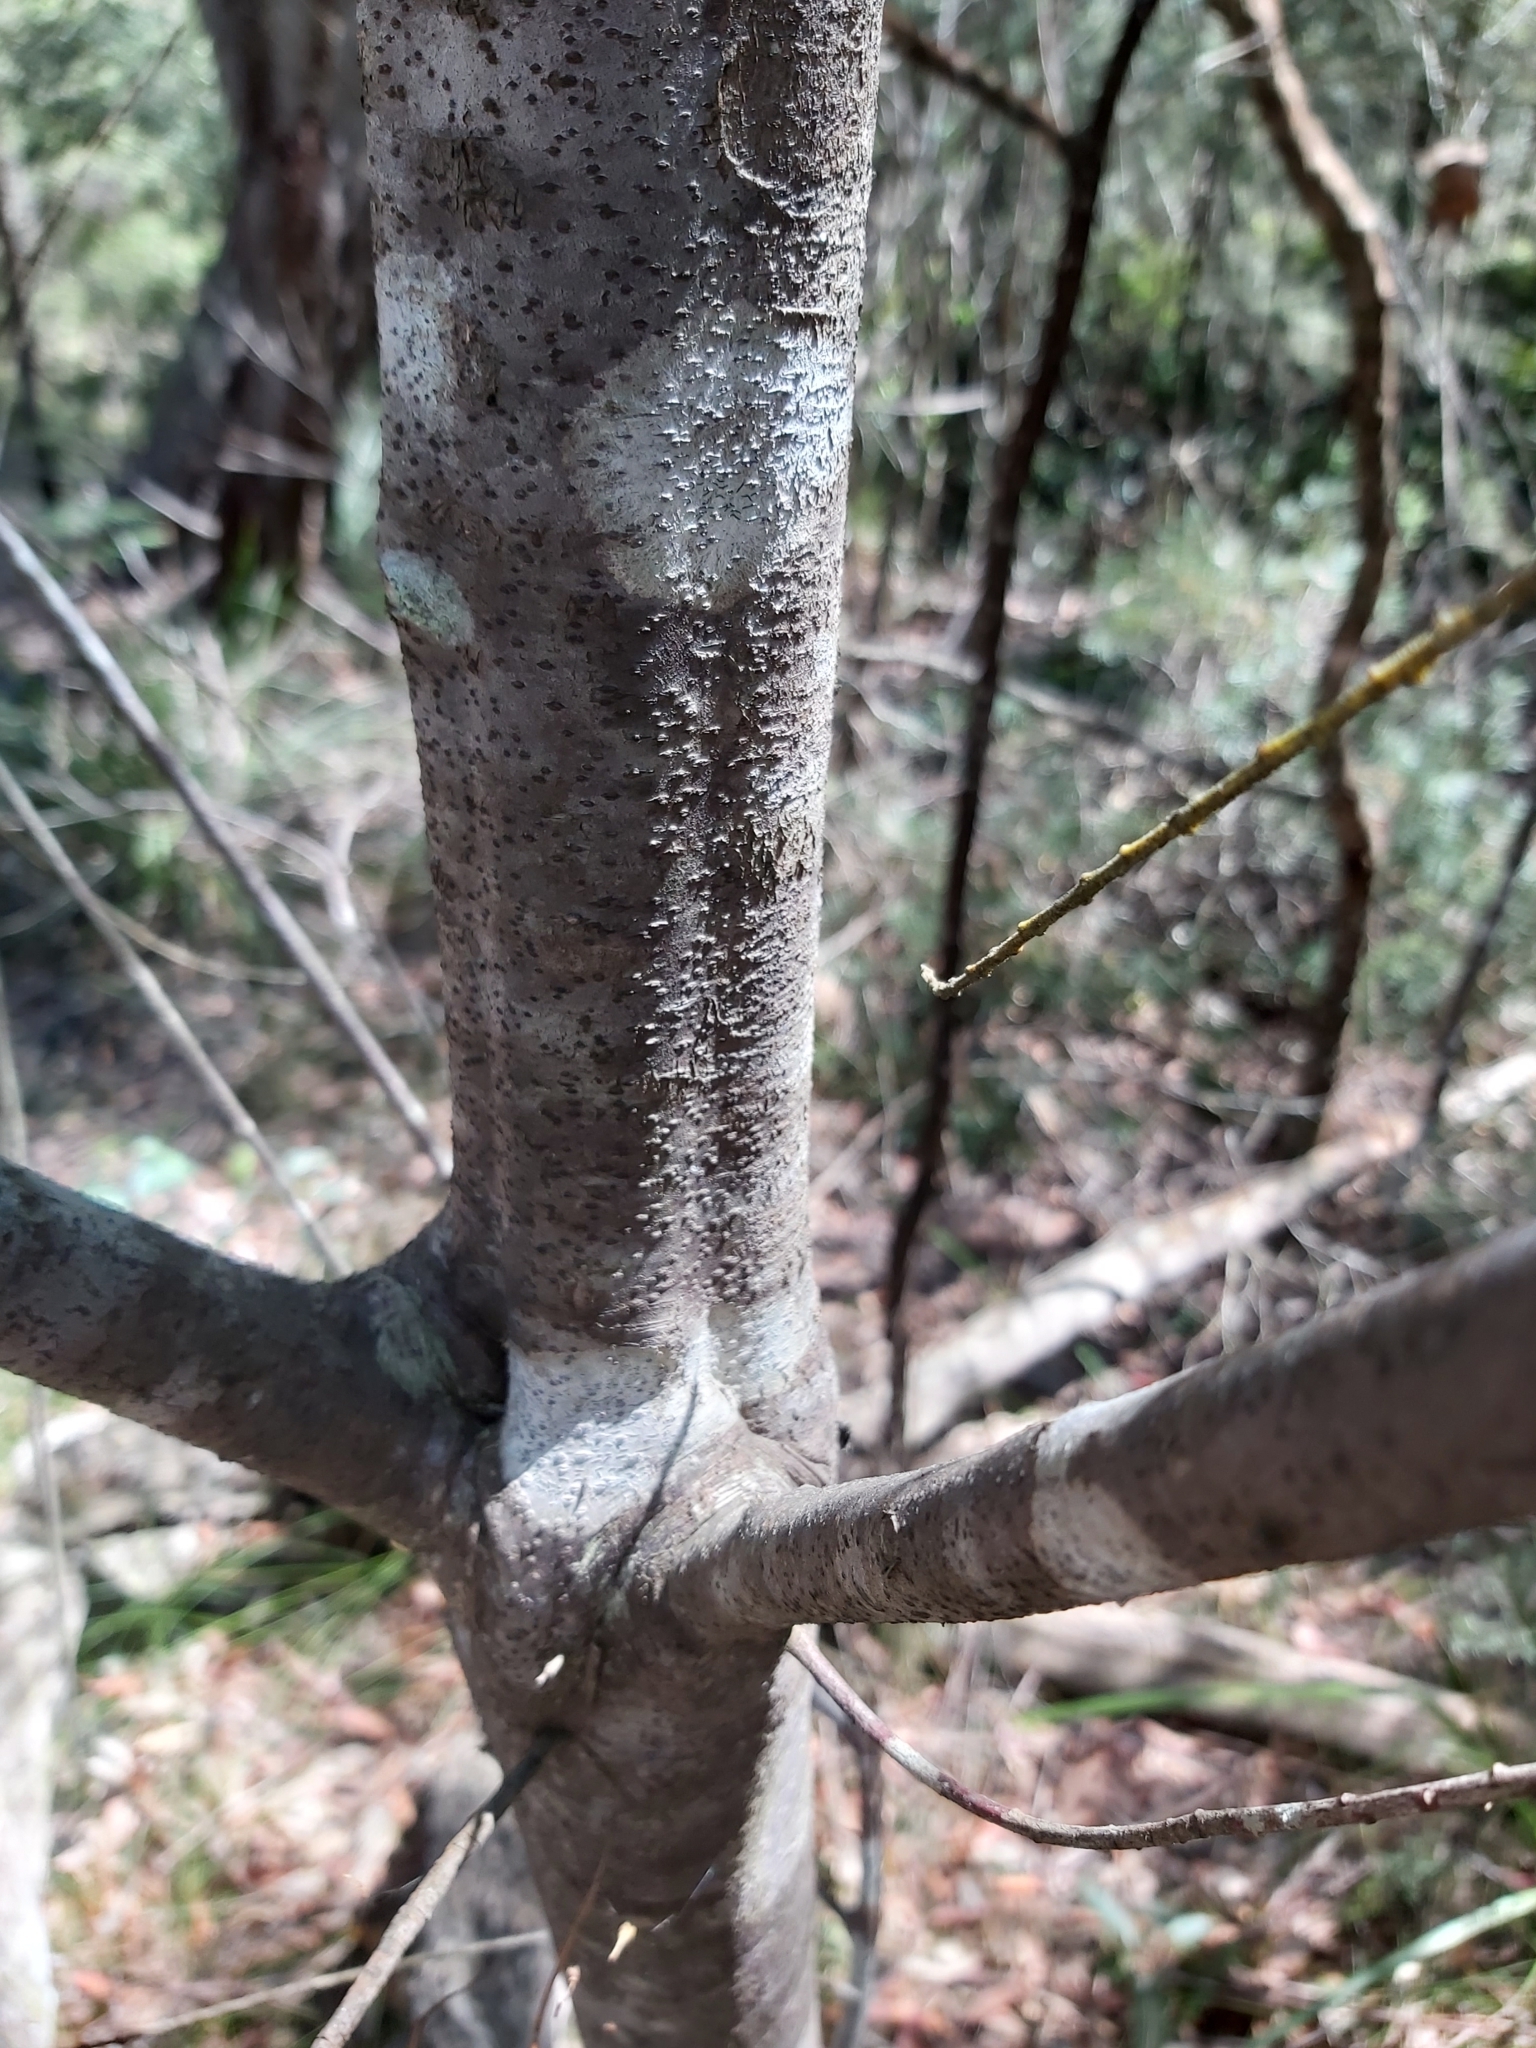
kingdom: Plantae
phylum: Tracheophyta
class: Magnoliopsida
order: Sapindales
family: Rutaceae
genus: Leionema
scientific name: Leionema dentatum
